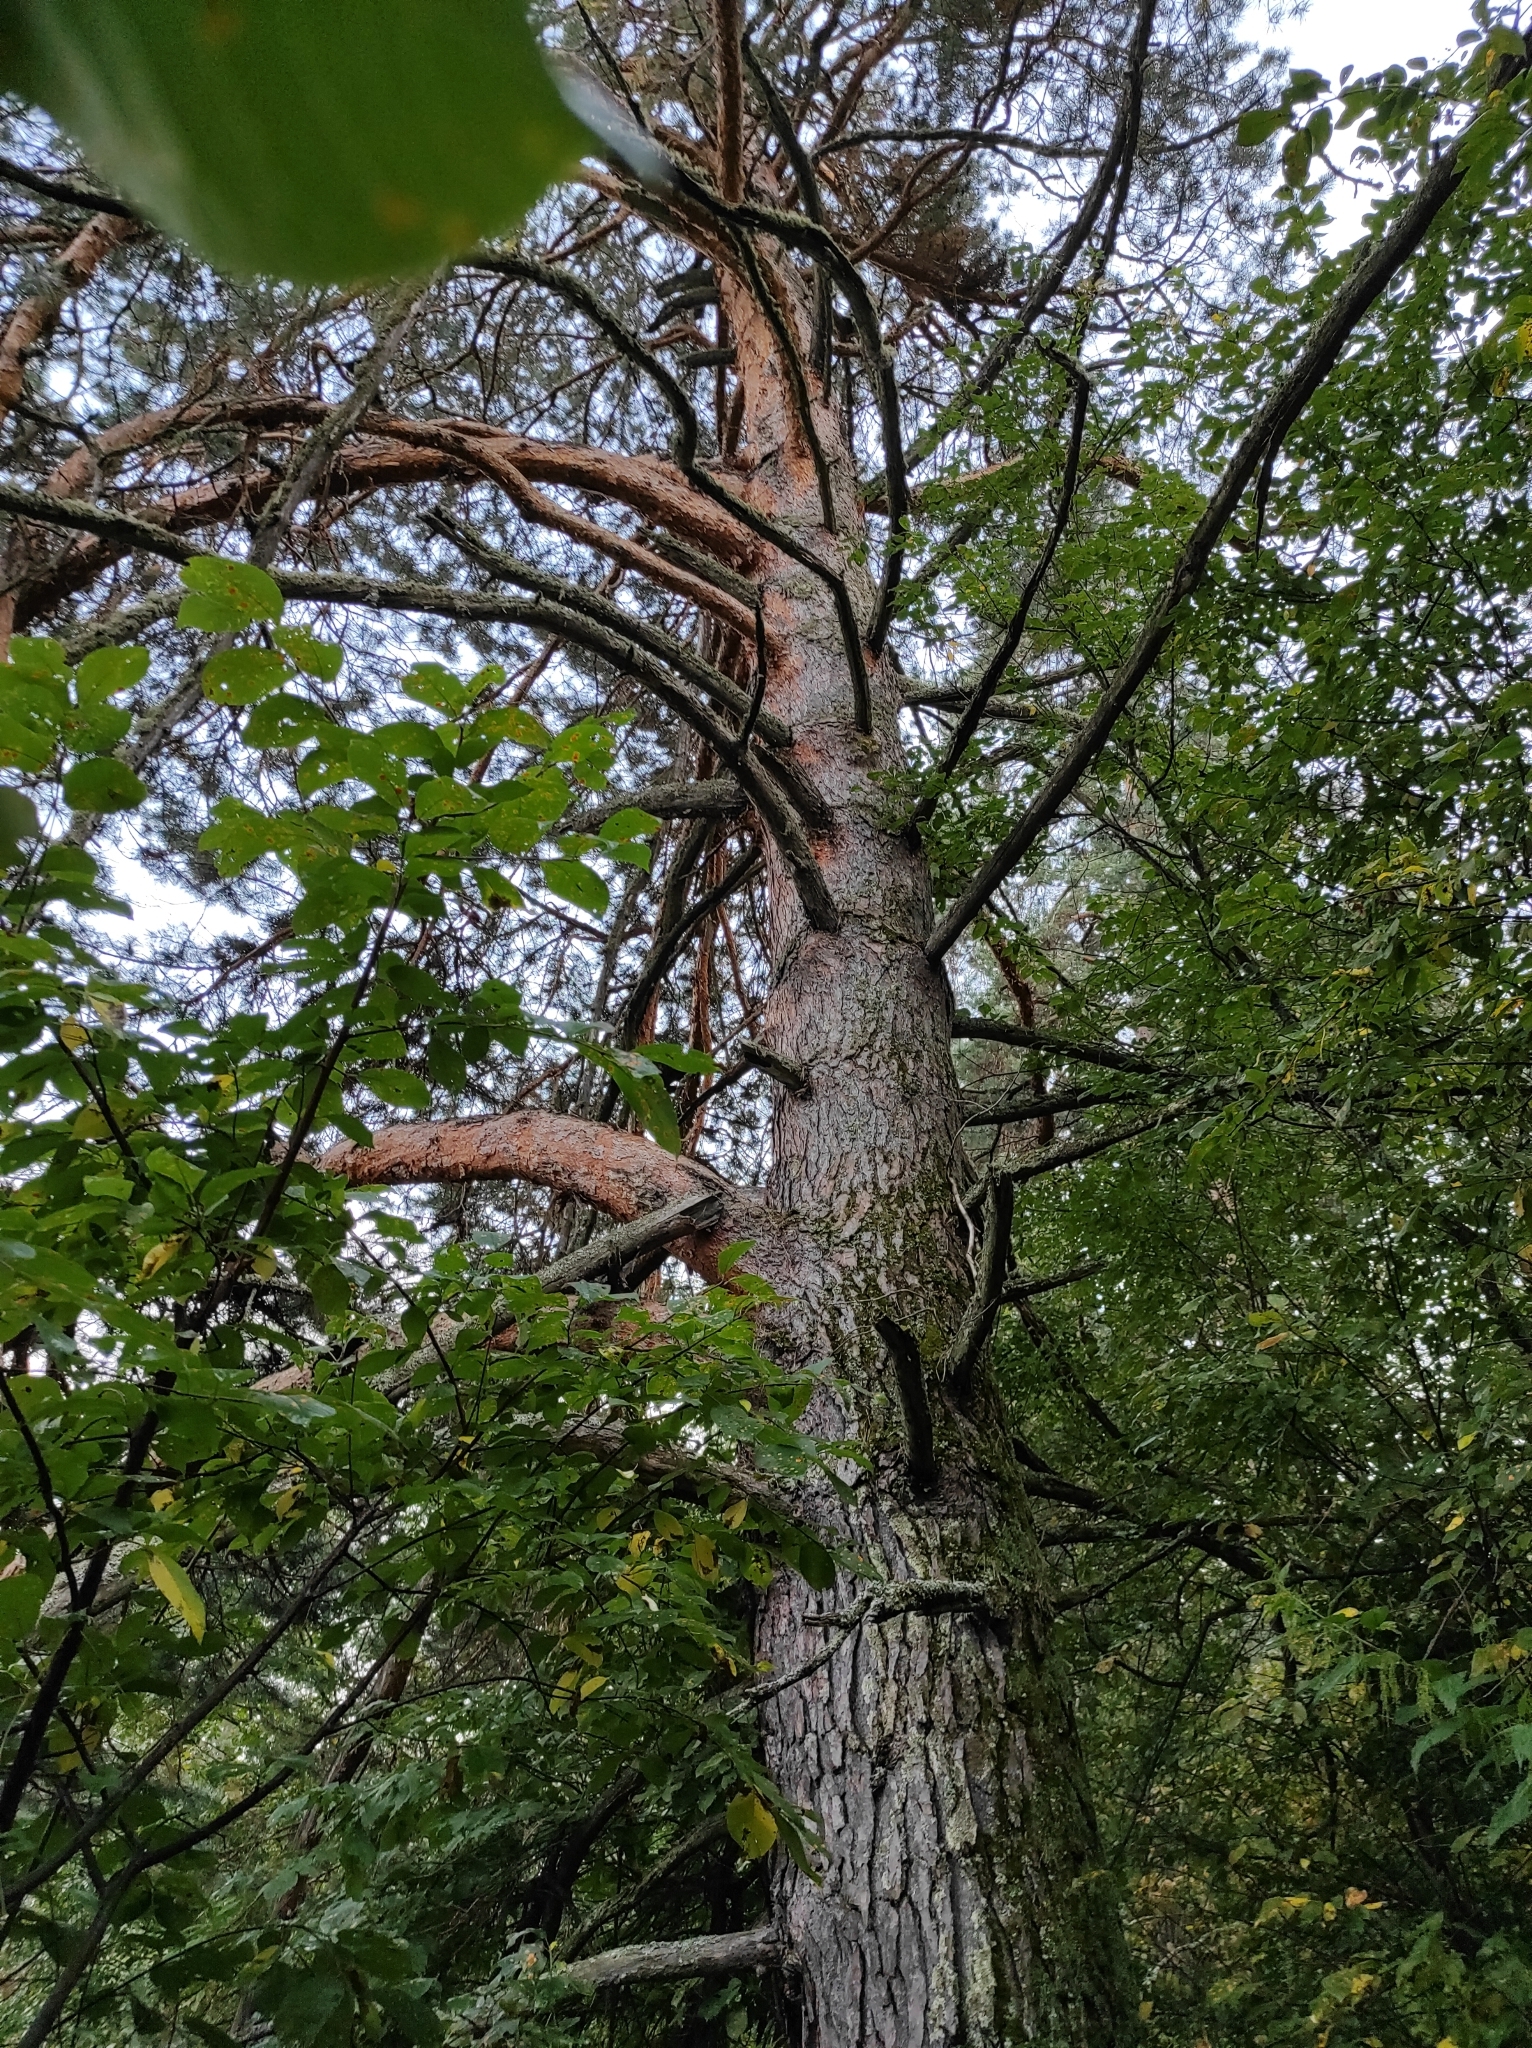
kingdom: Plantae
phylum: Tracheophyta
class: Pinopsida
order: Pinales
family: Pinaceae
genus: Pinus
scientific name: Pinus sylvestris
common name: Scots pine
